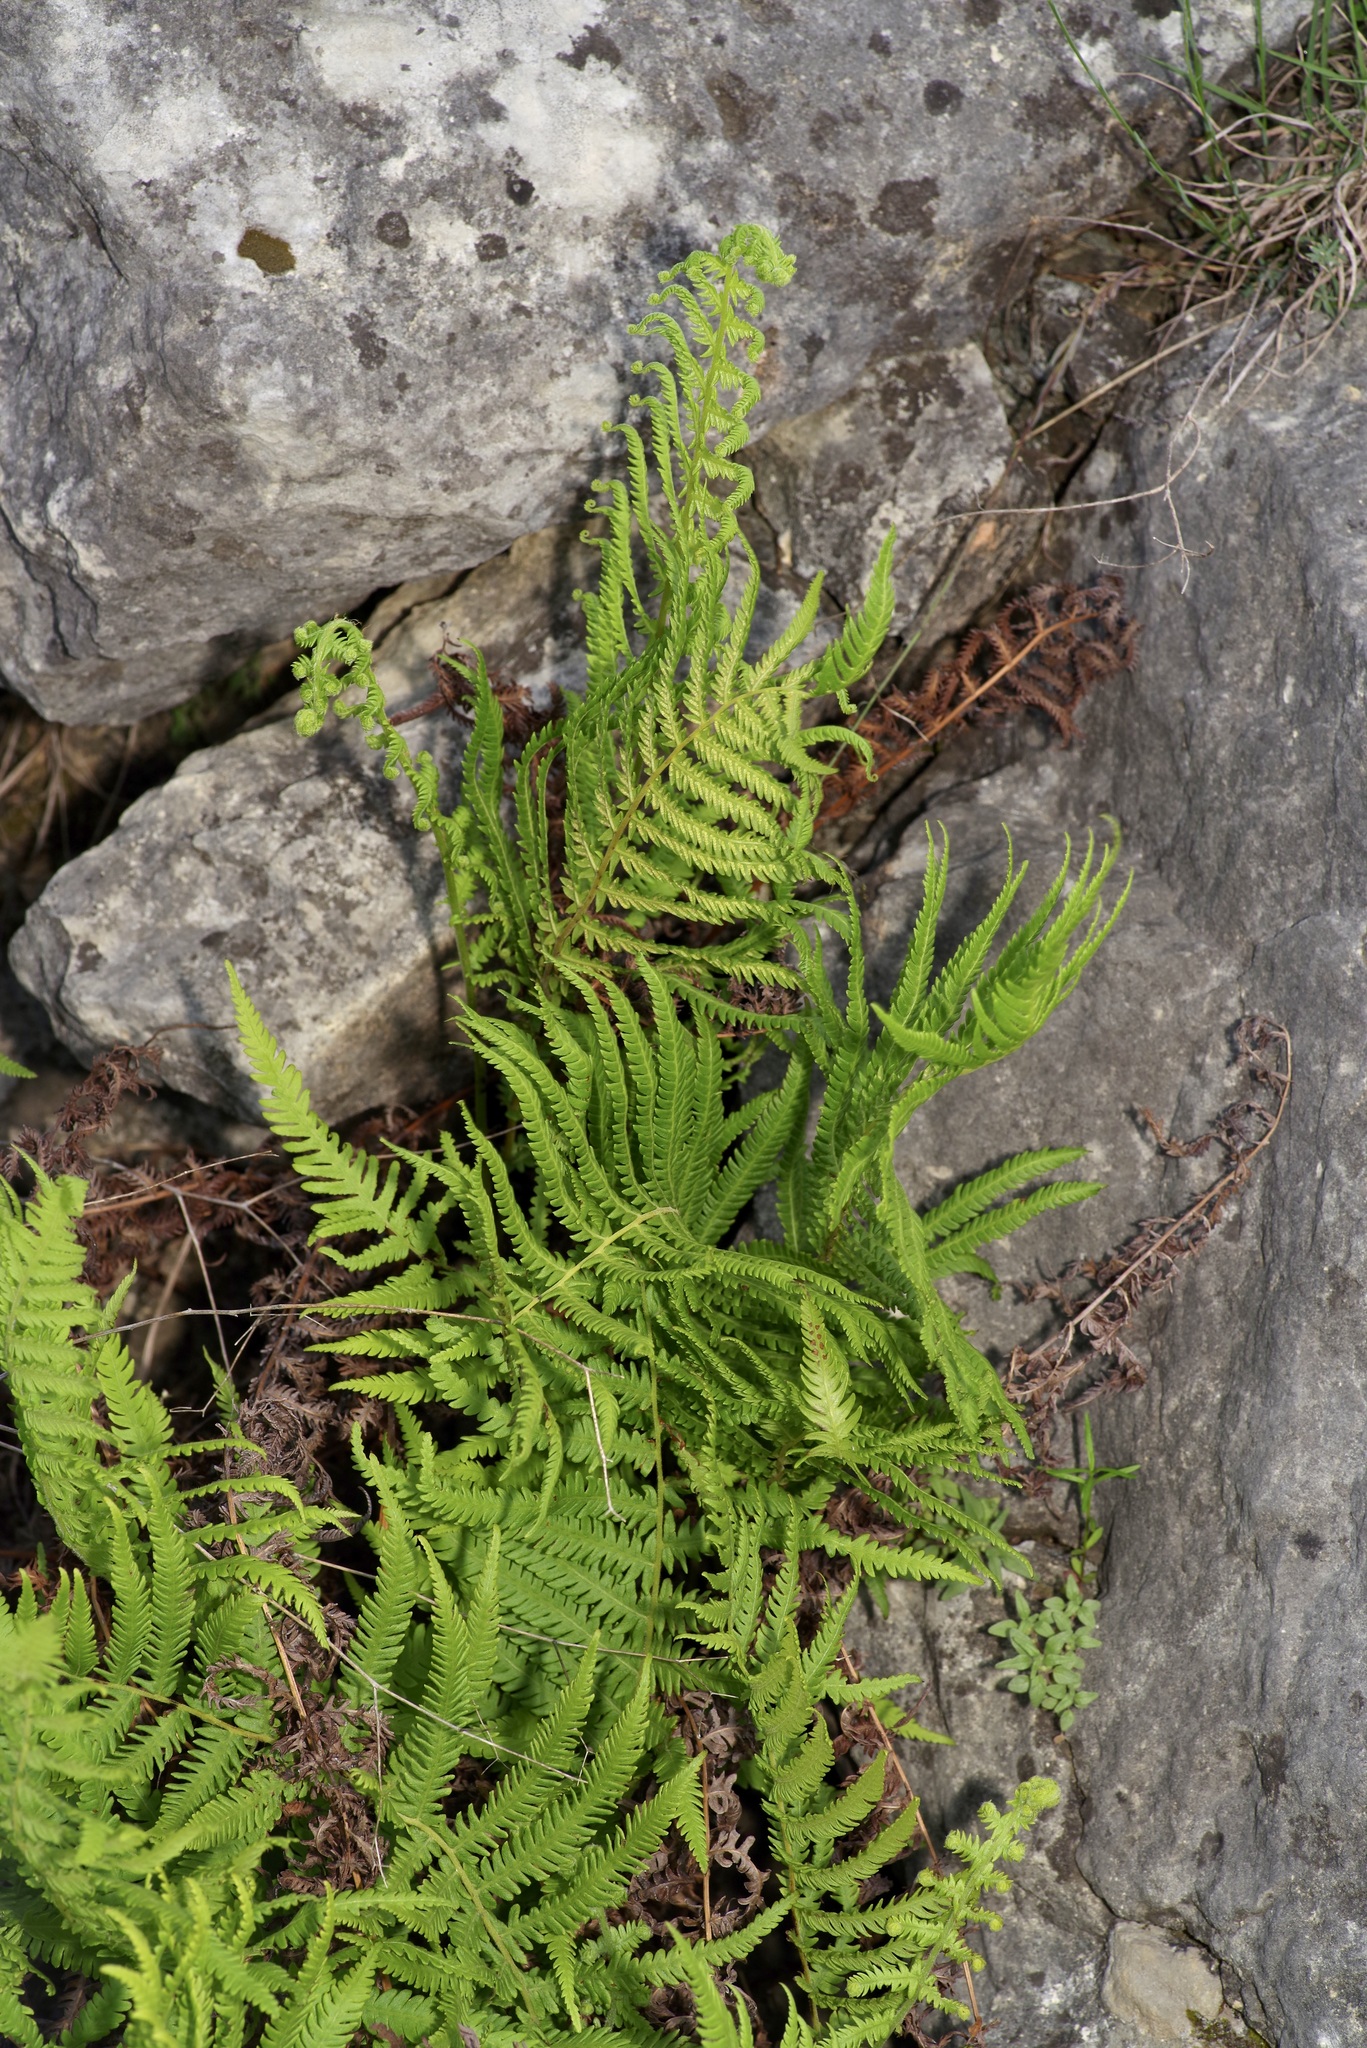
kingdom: Plantae
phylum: Tracheophyta
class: Polypodiopsida
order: Polypodiales
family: Thelypteridaceae
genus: Pelazoneuron
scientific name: Pelazoneuron ovatum
